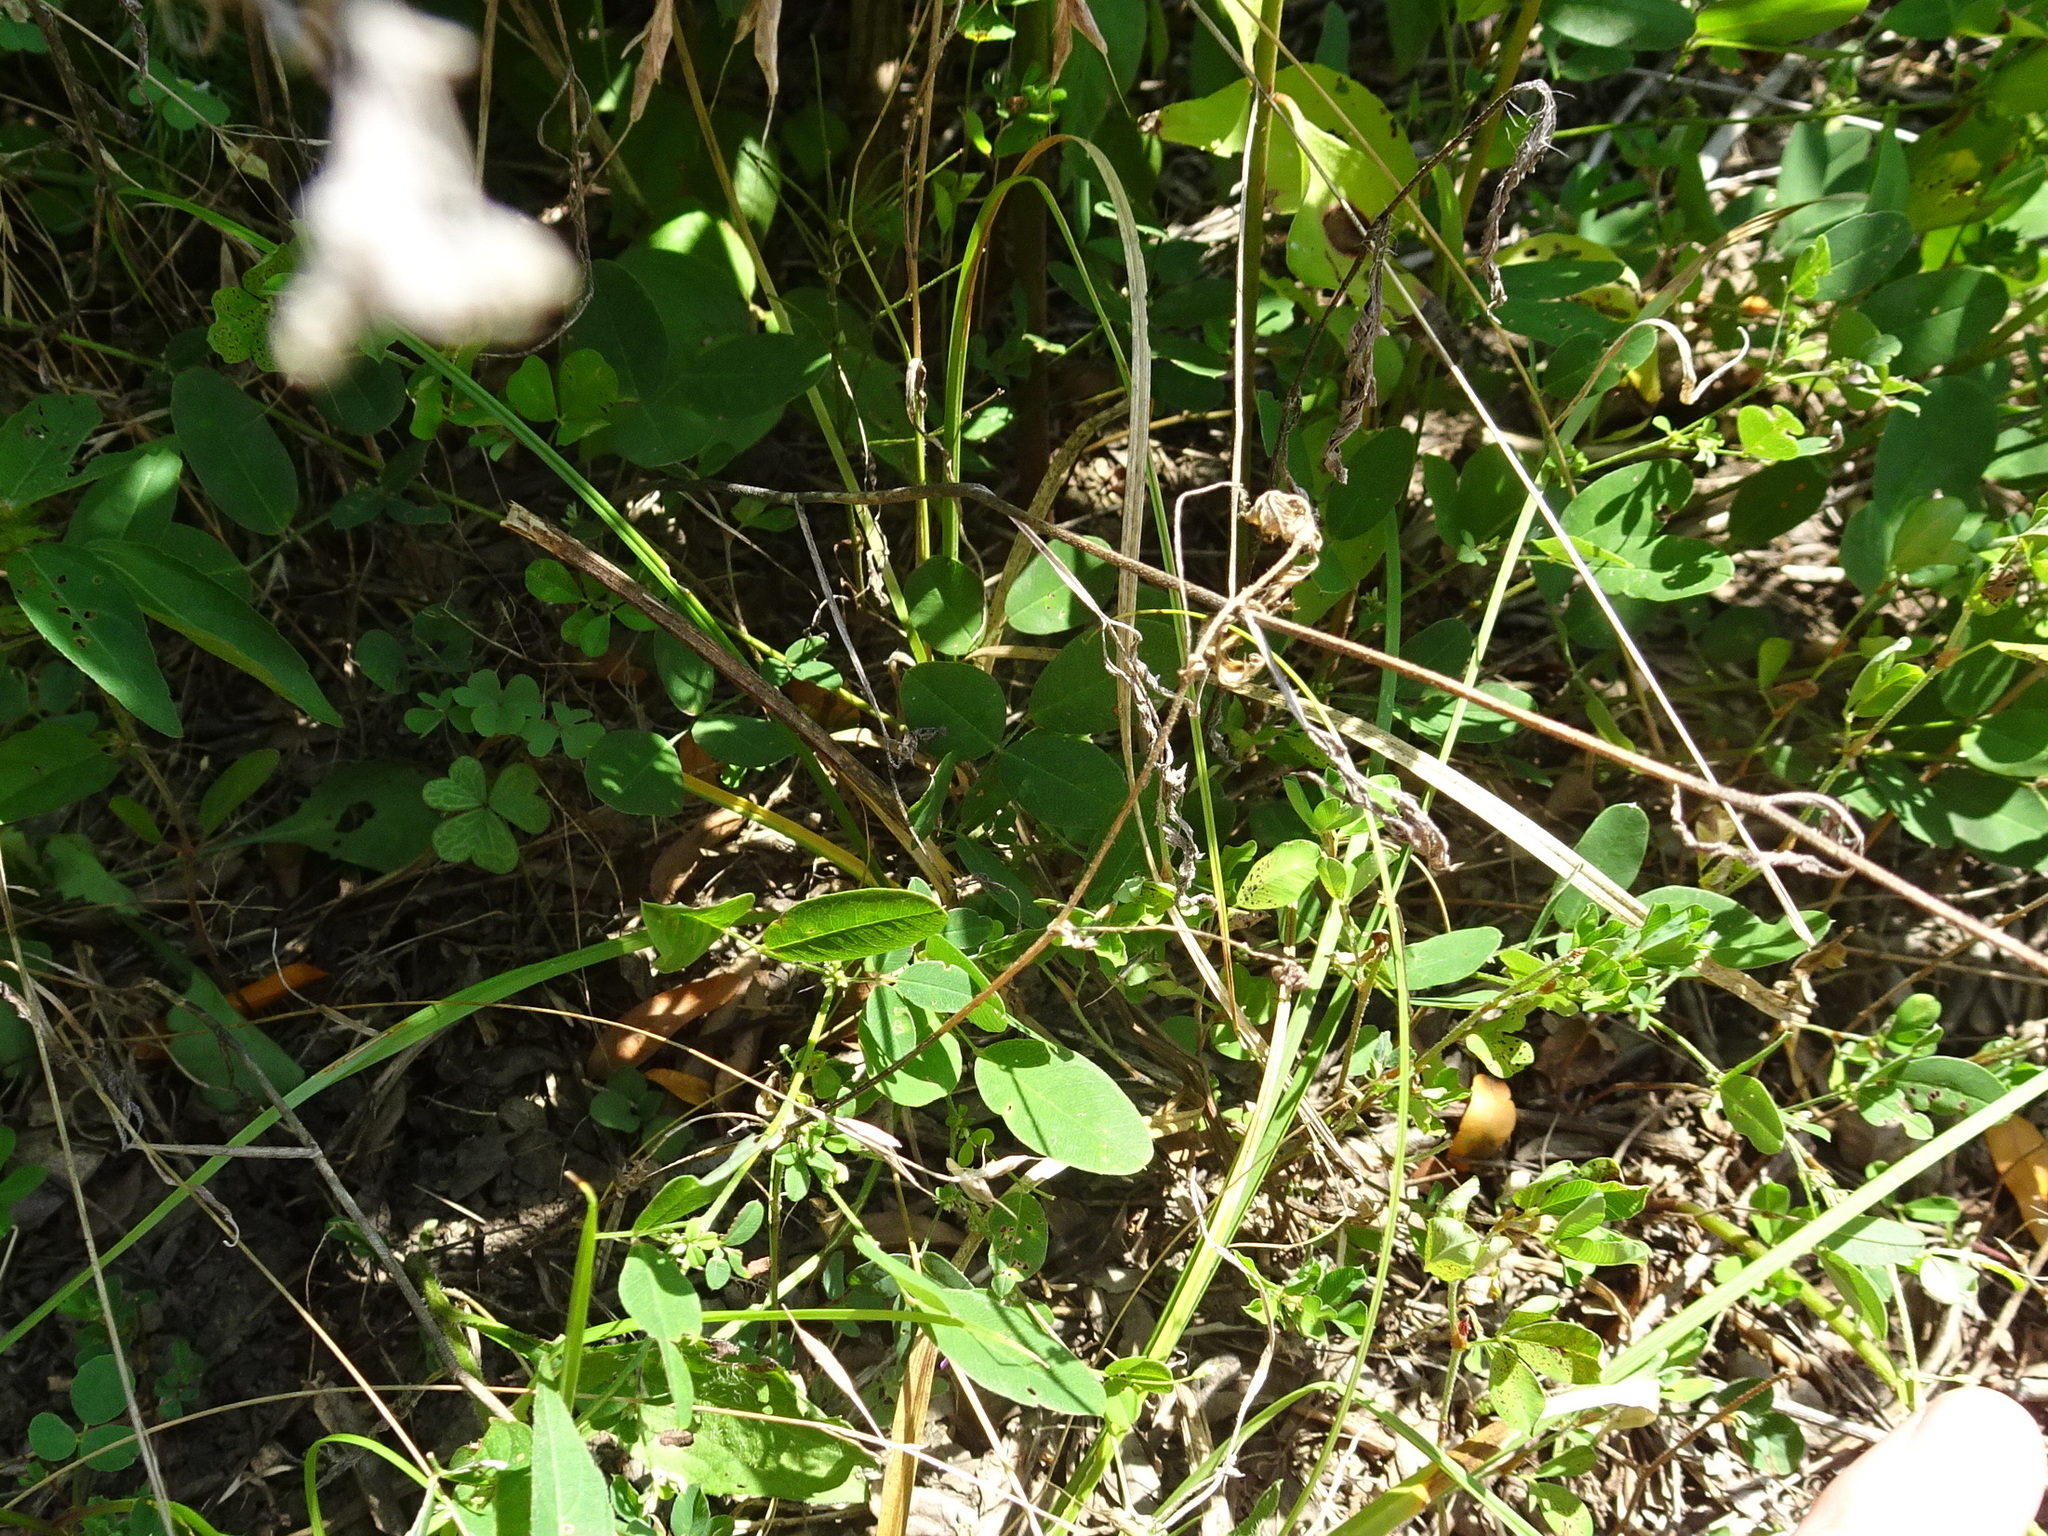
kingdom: Plantae
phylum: Tracheophyta
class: Magnoliopsida
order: Fabales
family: Fabaceae
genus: Lespedeza
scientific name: Lespedeza
